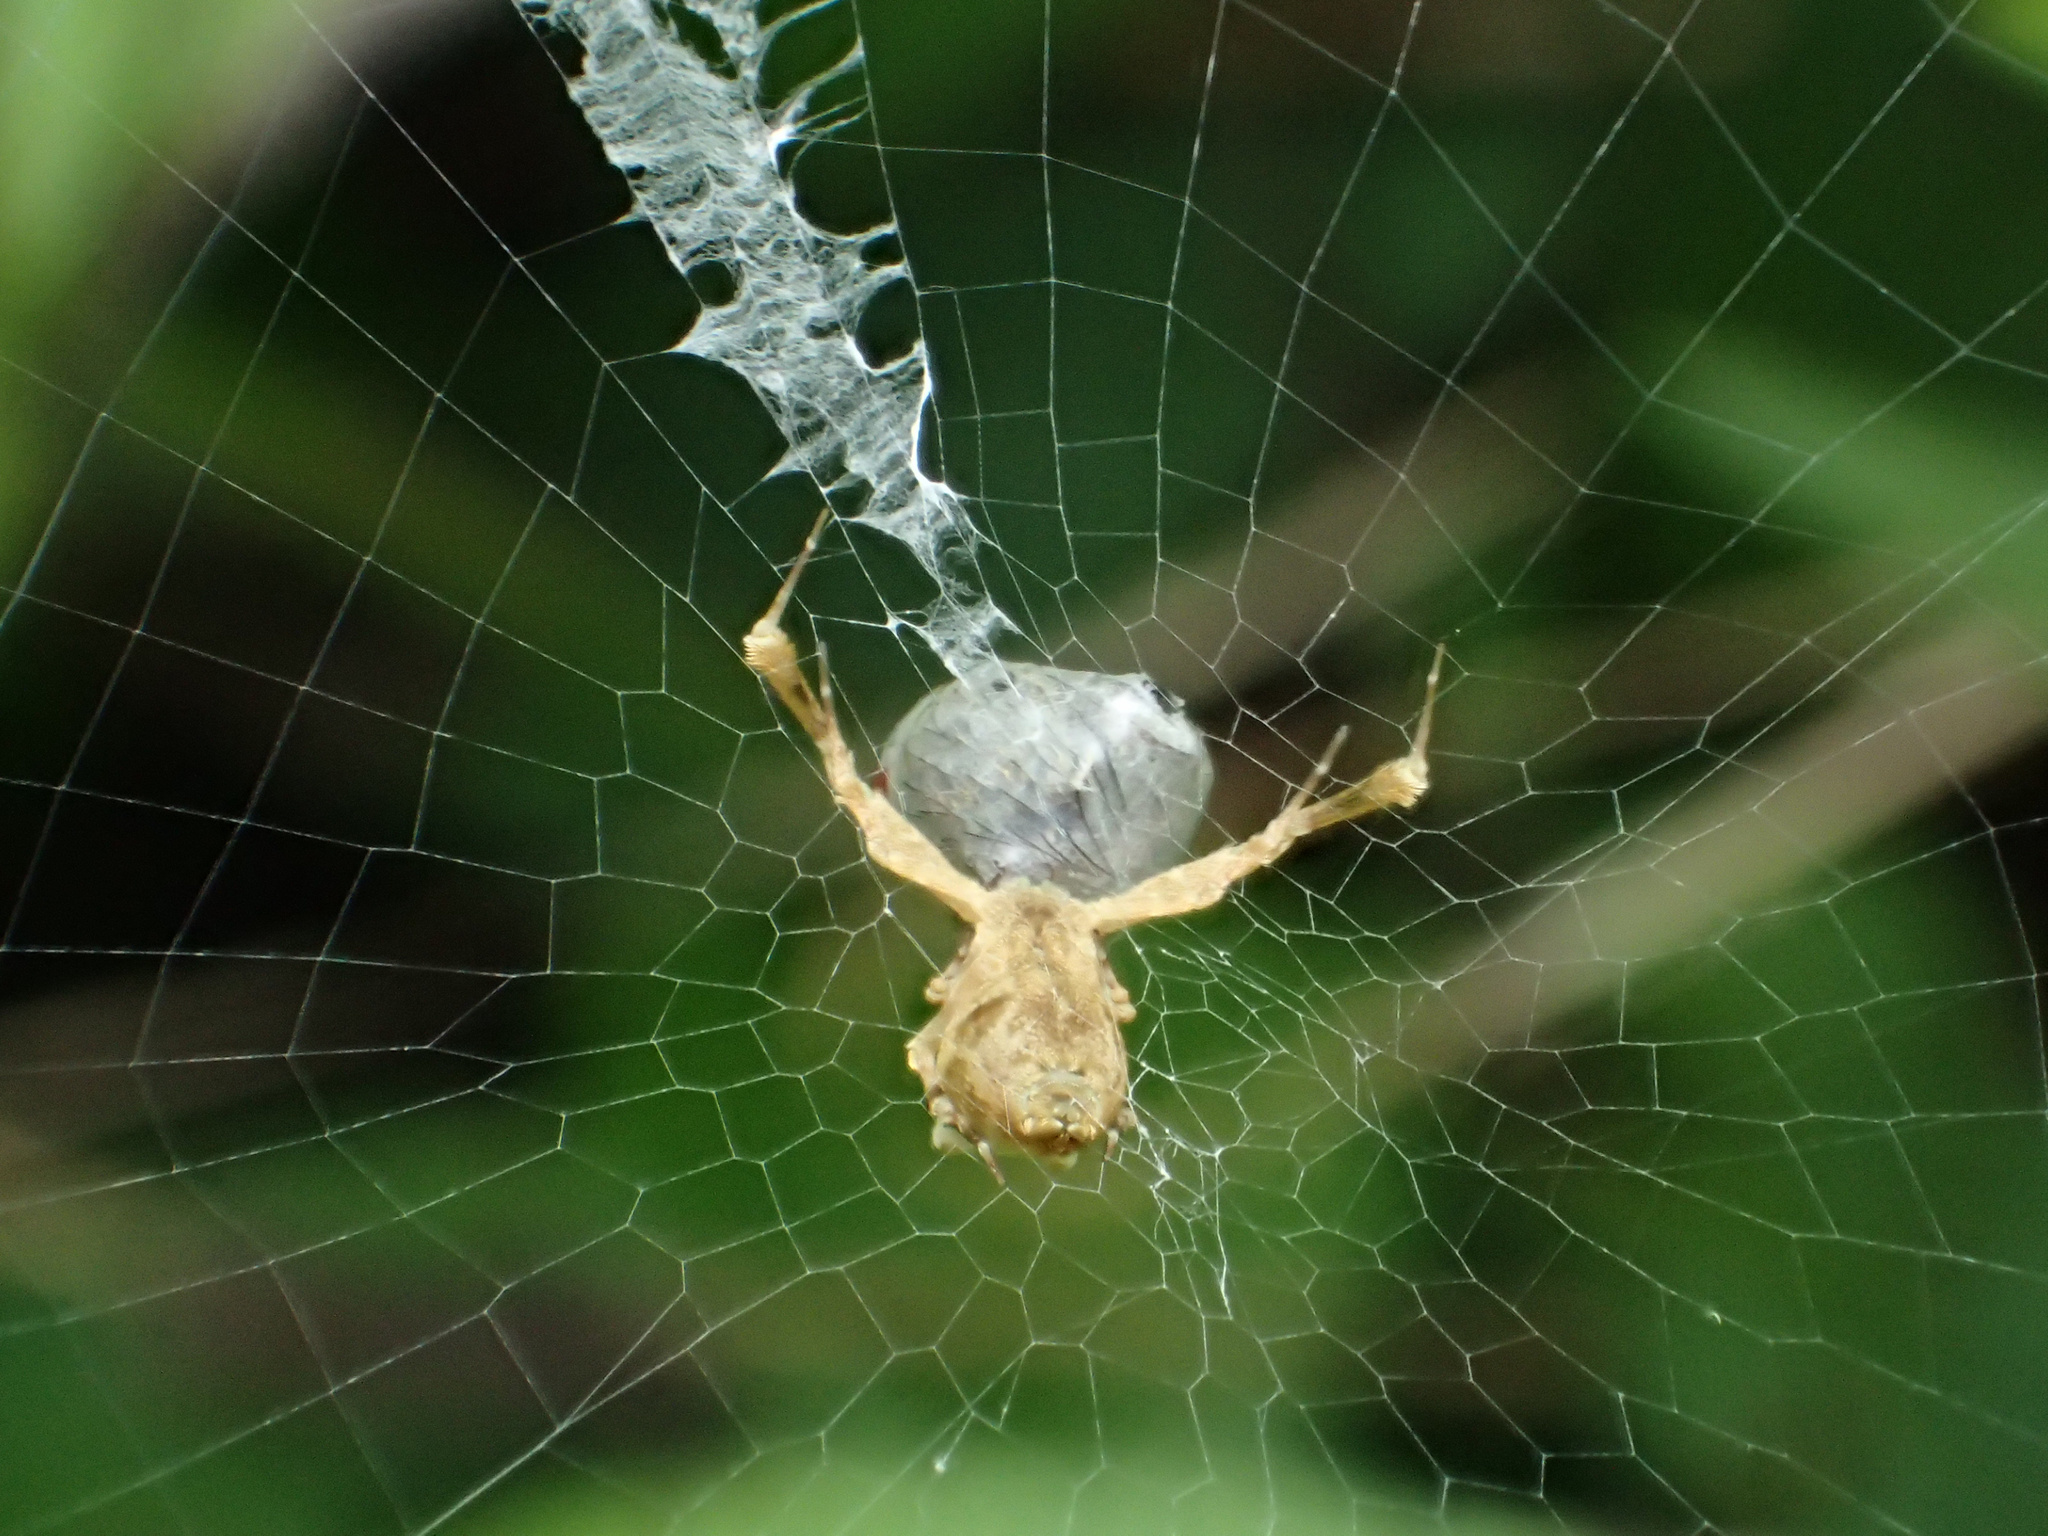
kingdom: Animalia
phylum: Arthropoda
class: Arachnida
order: Araneae
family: Uloboridae
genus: Uloborus
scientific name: Uloborus glomosus
